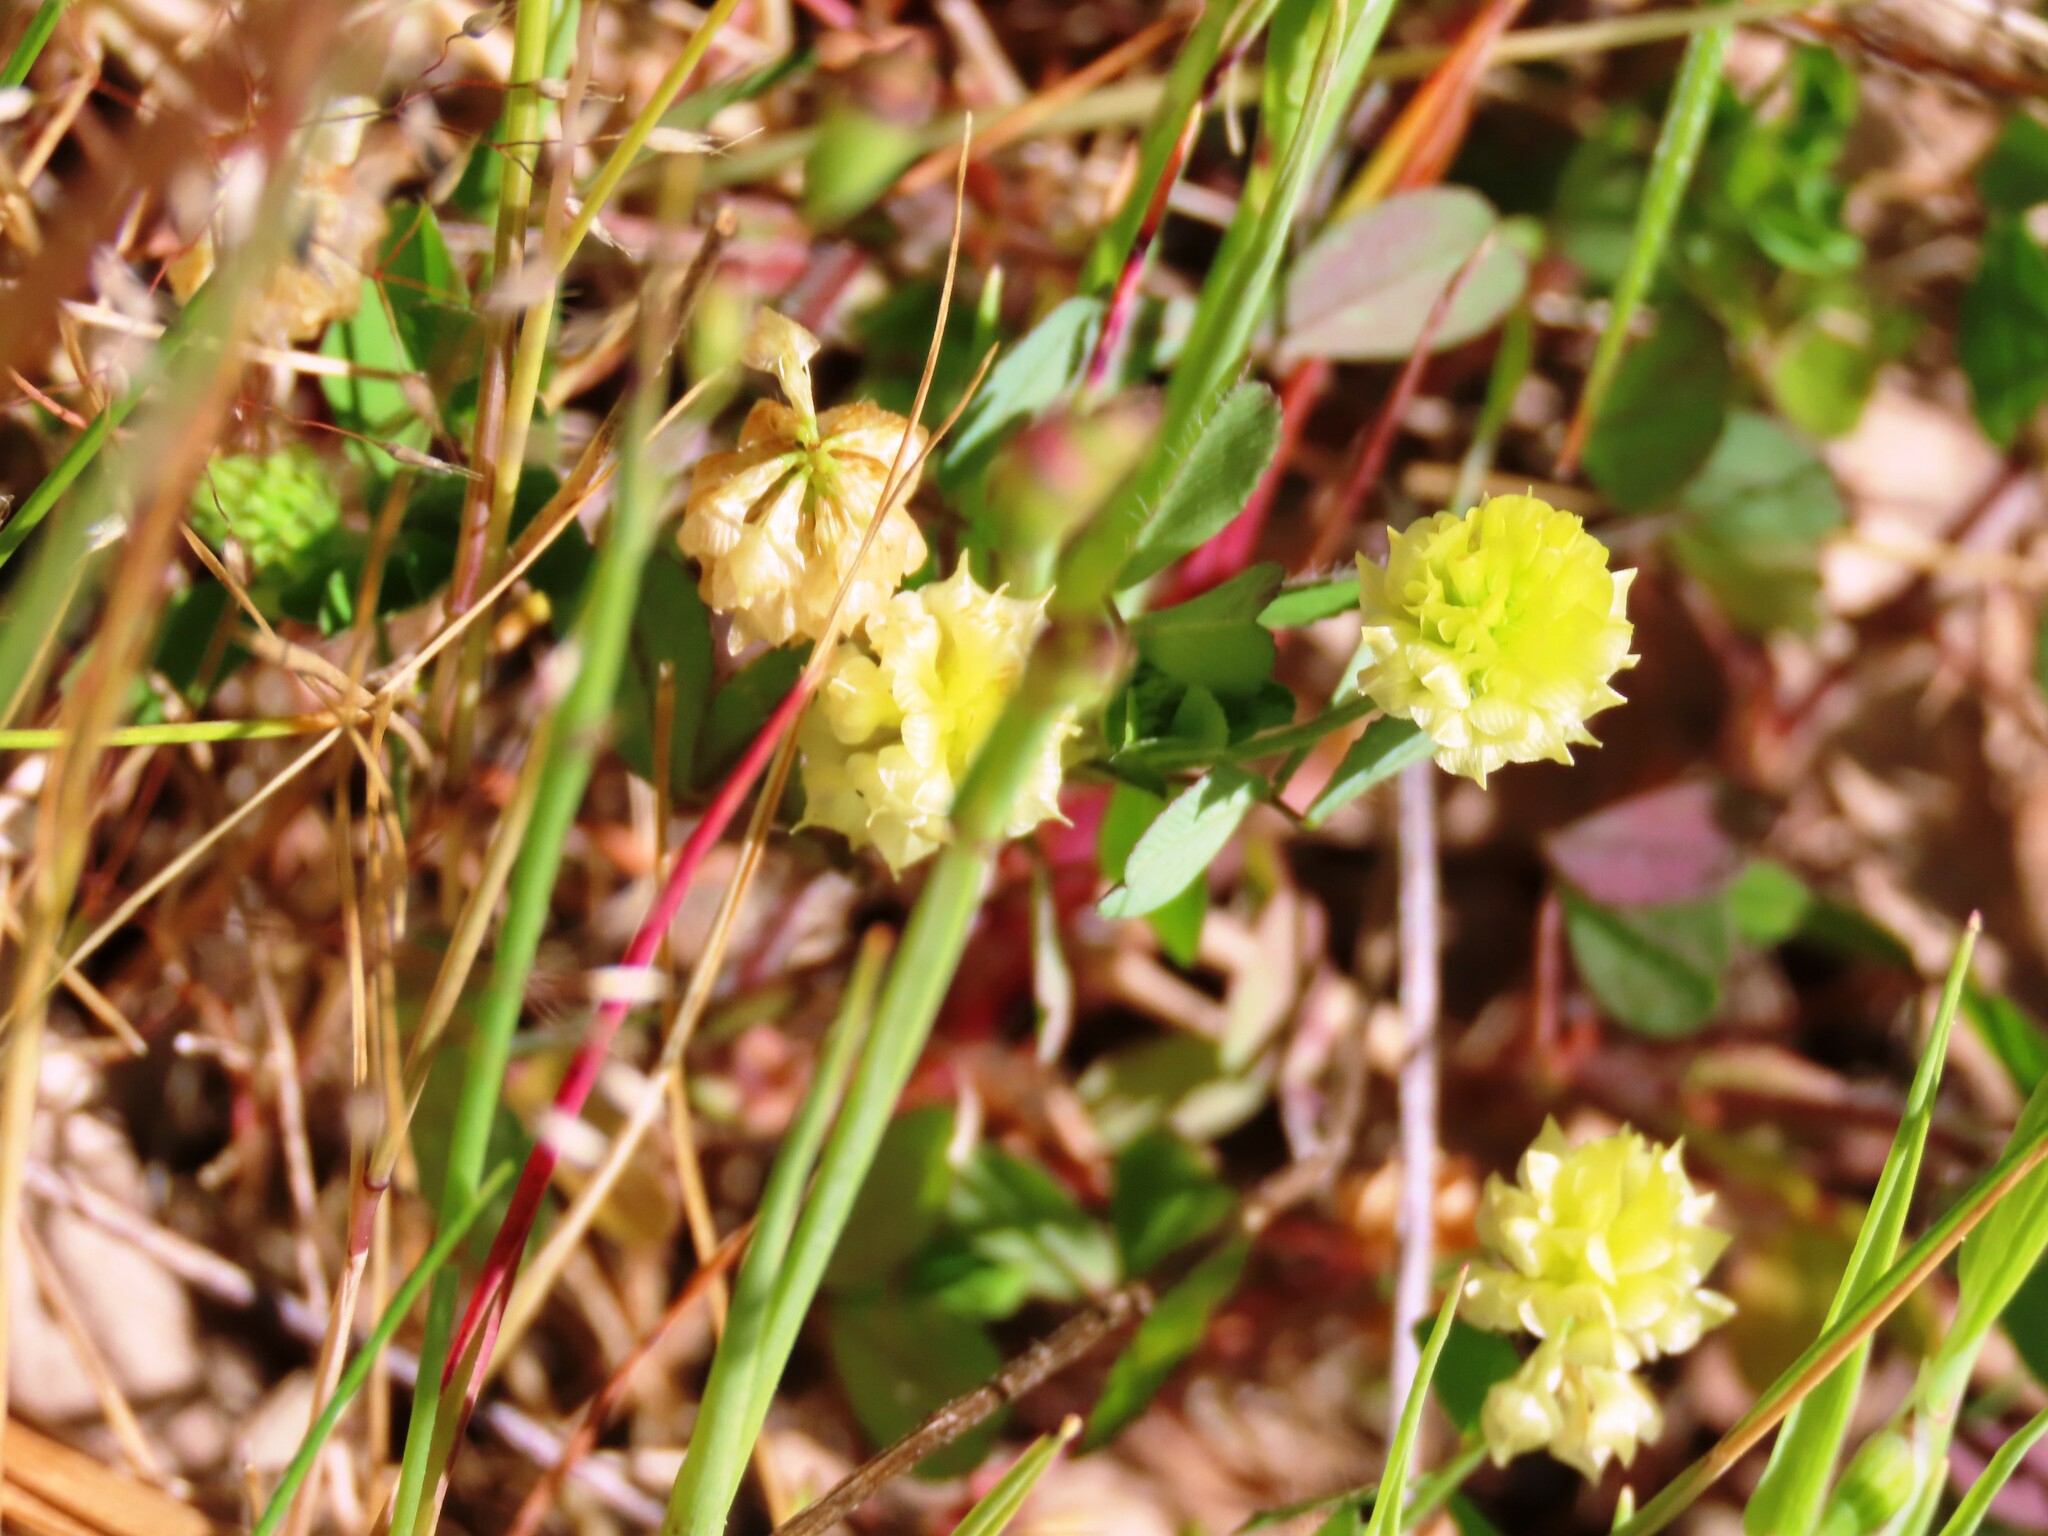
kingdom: Plantae
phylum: Tracheophyta
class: Magnoliopsida
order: Fabales
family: Fabaceae
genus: Trifolium
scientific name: Trifolium campestre
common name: Field clover
